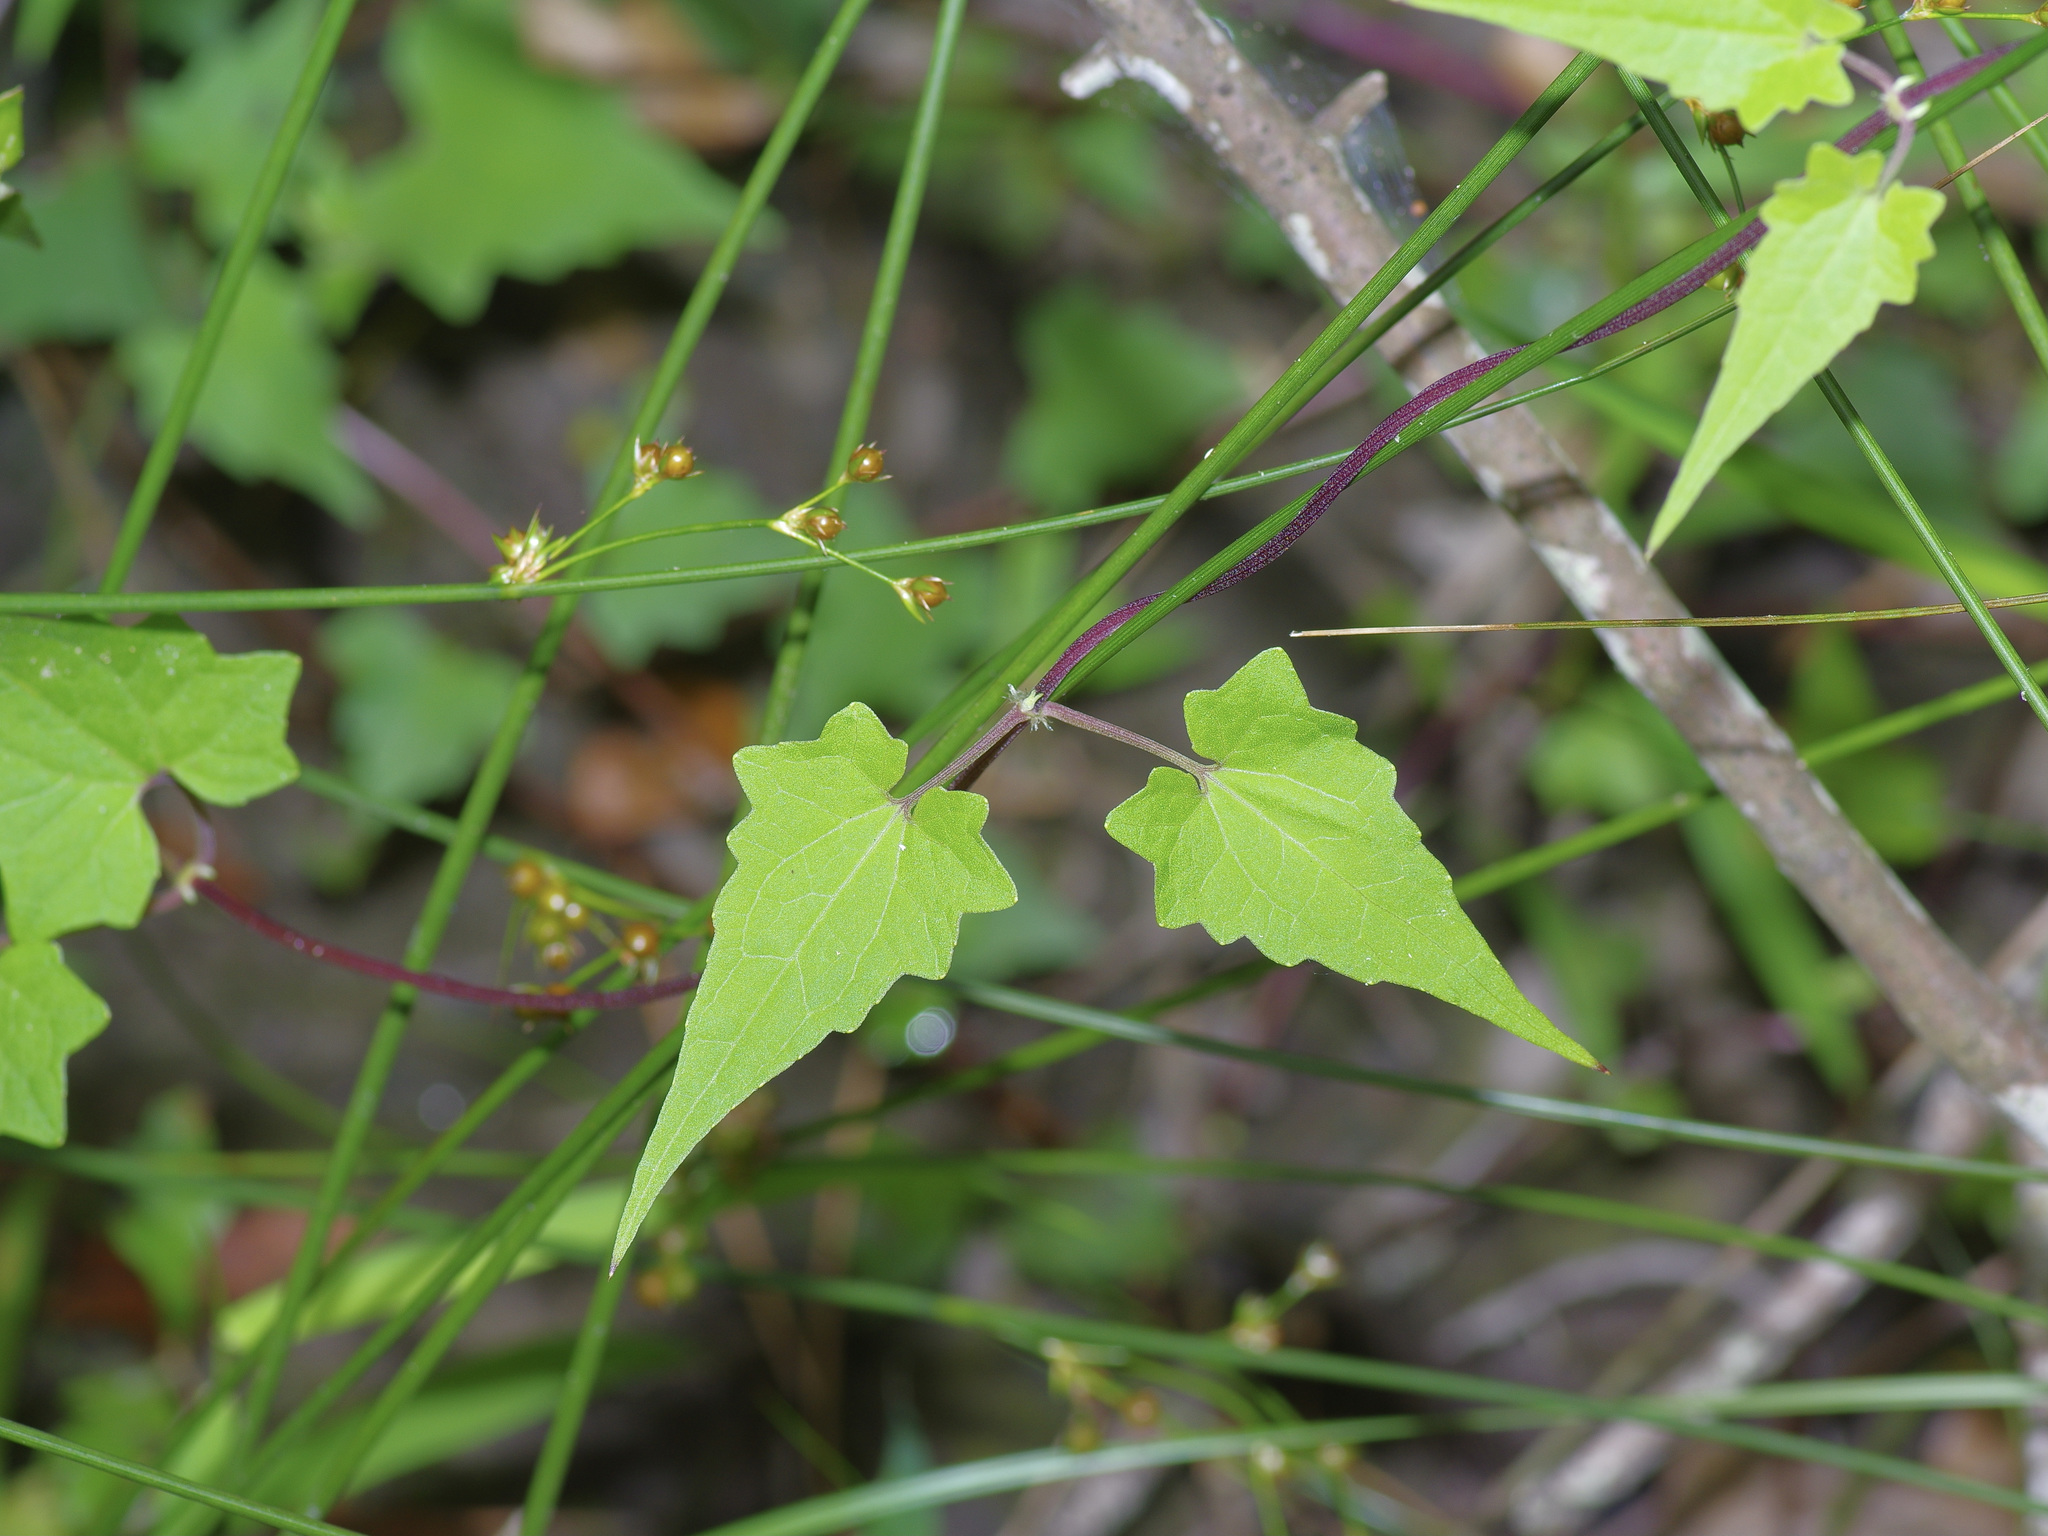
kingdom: Plantae
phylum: Tracheophyta
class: Magnoliopsida
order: Asterales
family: Asteraceae
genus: Mikania
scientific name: Mikania scandens
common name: Climbing hempvine
